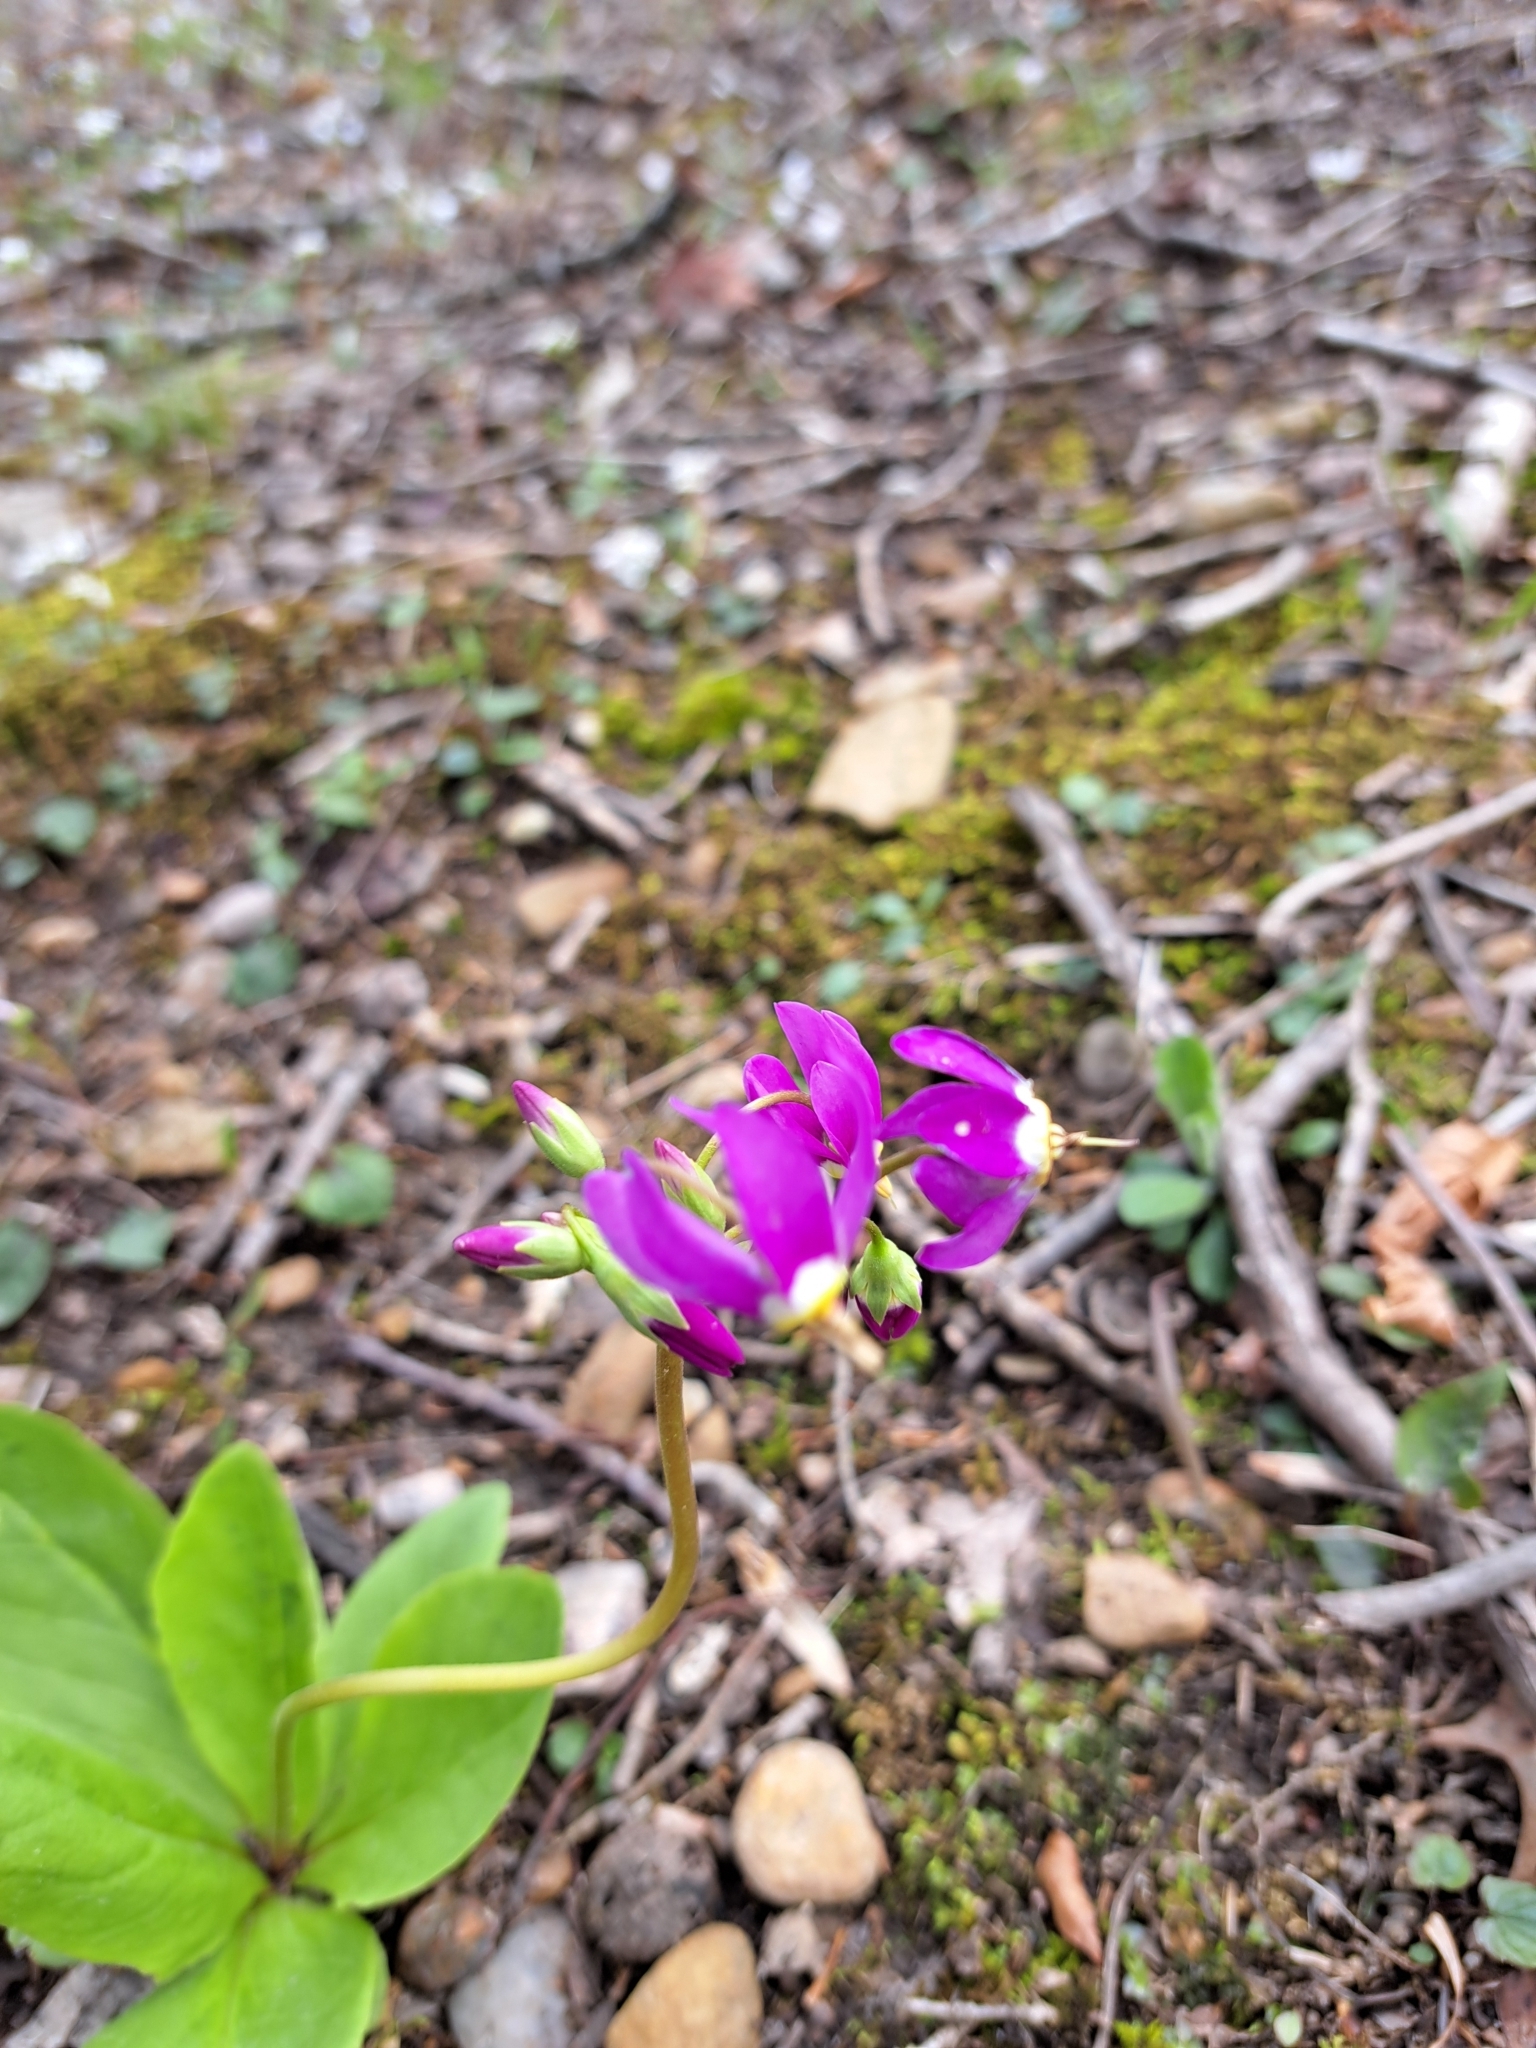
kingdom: Plantae
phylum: Tracheophyta
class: Magnoliopsida
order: Ericales
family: Primulaceae
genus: Dodecatheon
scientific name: Dodecatheon meadia
